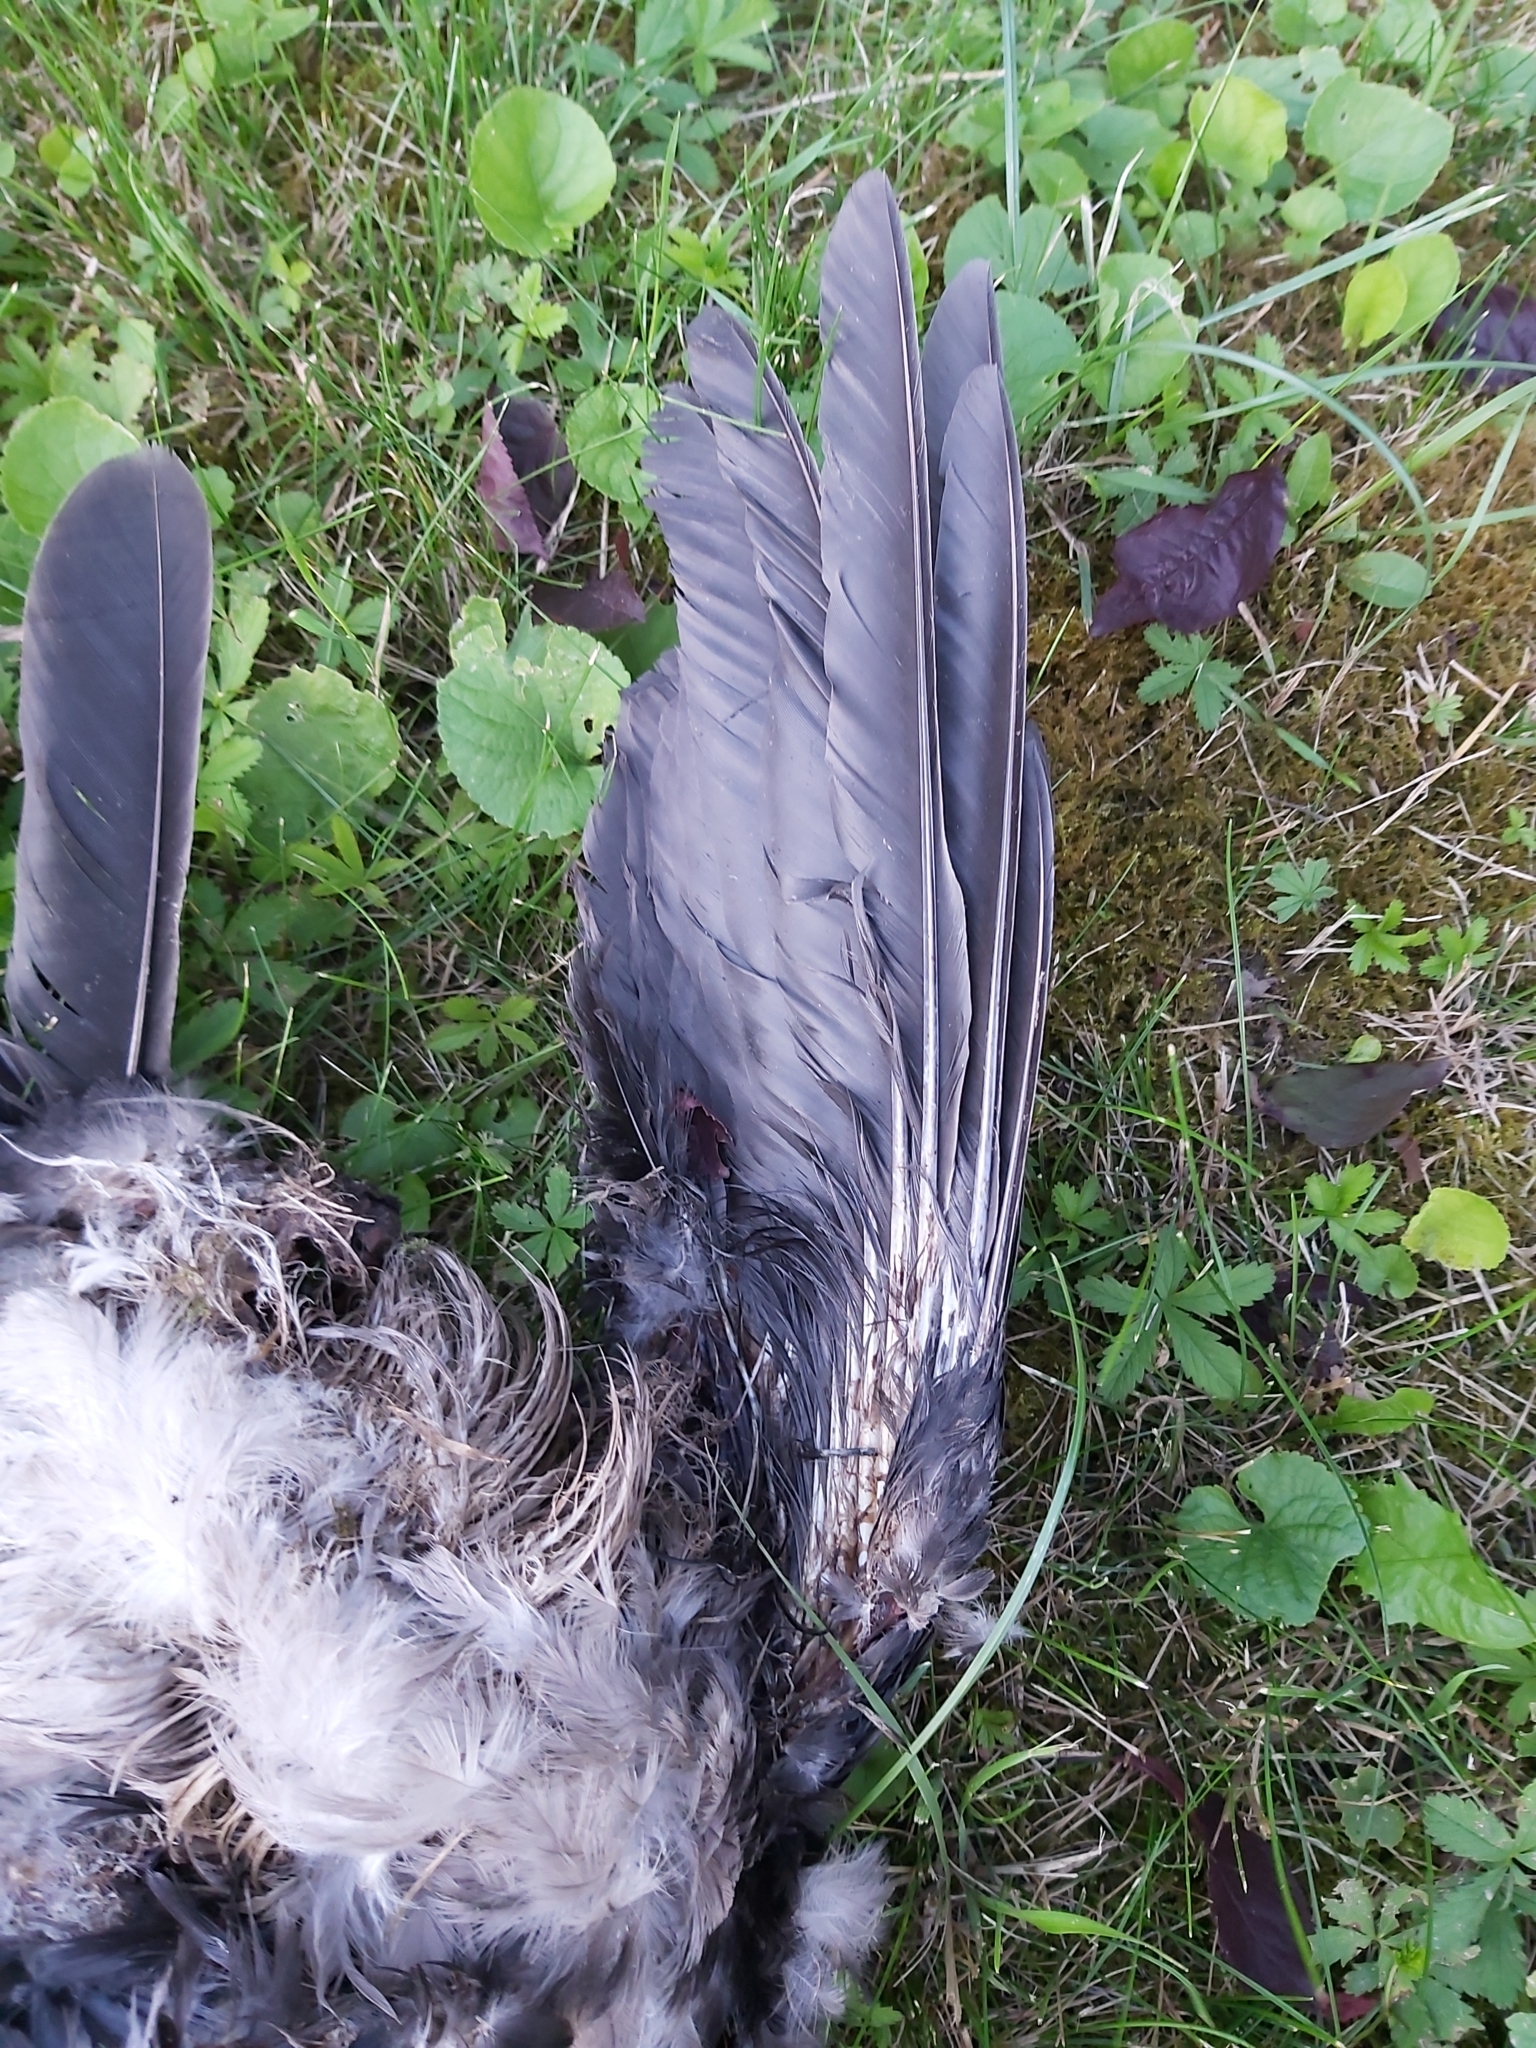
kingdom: Animalia
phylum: Chordata
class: Aves
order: Passeriformes
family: Corvidae
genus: Corvus
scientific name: Corvus cornix
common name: Hooded crow
